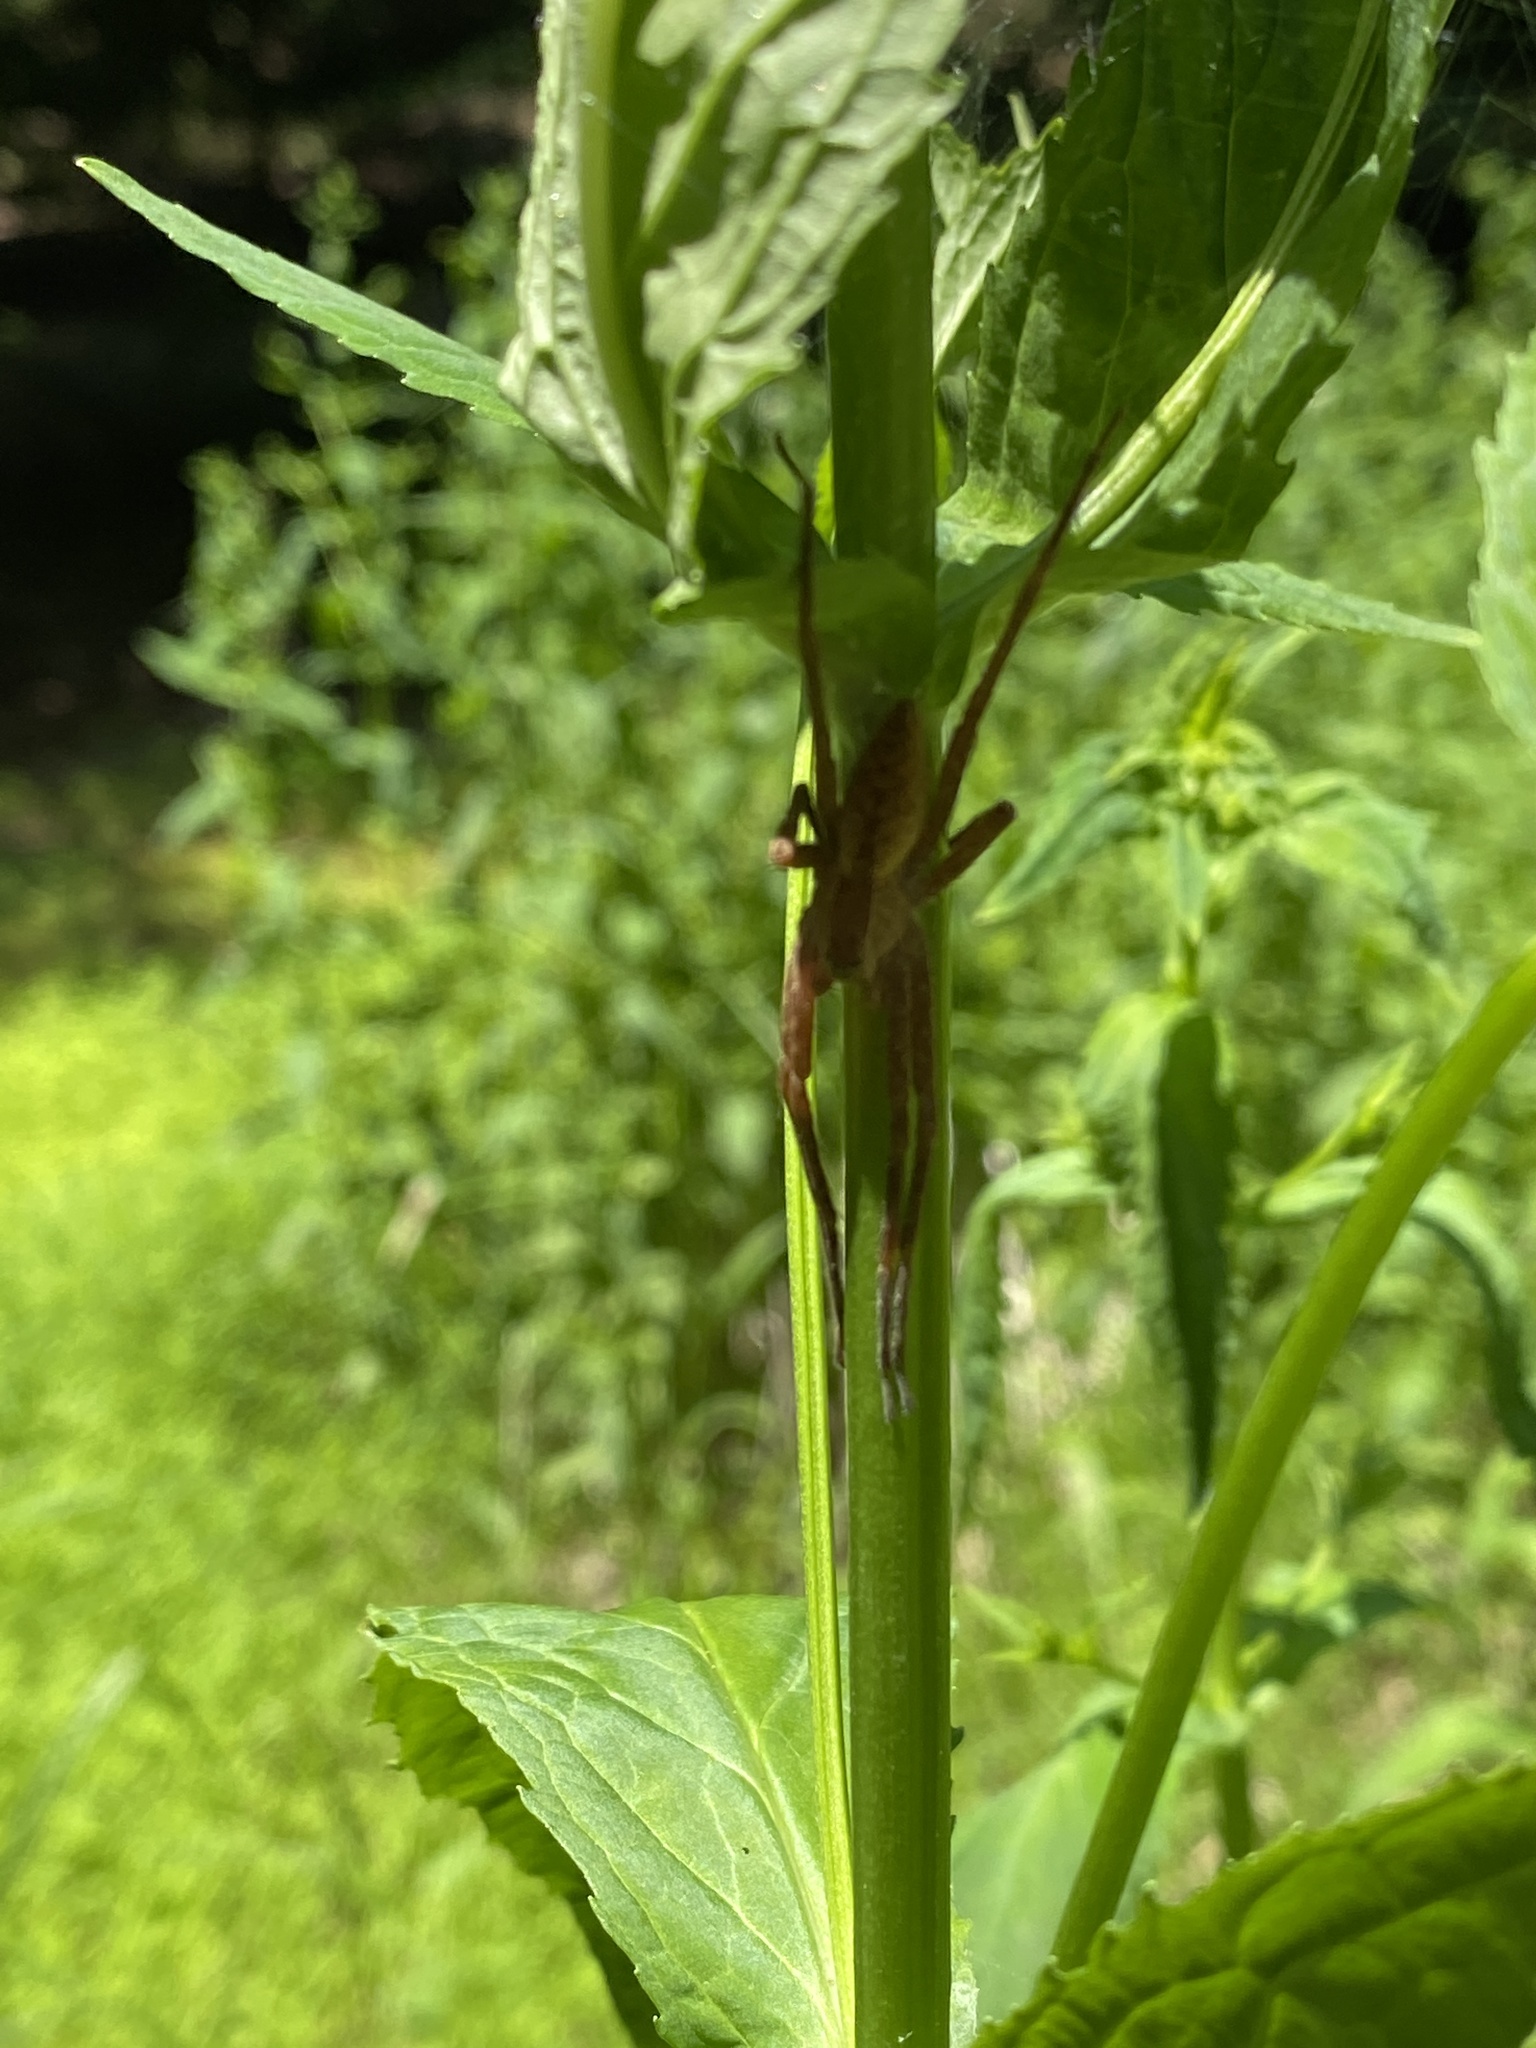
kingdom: Animalia
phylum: Arthropoda
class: Arachnida
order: Araneae
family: Pisauridae
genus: Pisaurina
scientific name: Pisaurina mira
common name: American nursery web spider
